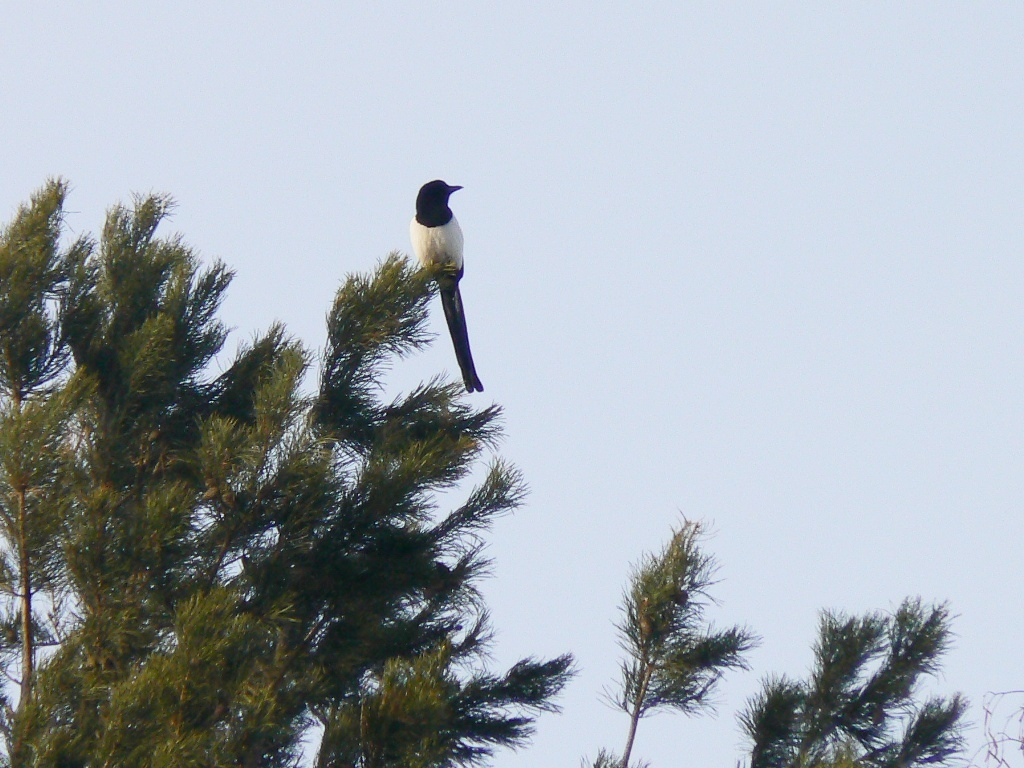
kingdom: Animalia
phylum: Chordata
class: Aves
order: Passeriformes
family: Corvidae
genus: Pica
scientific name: Pica pica
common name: Eurasian magpie
